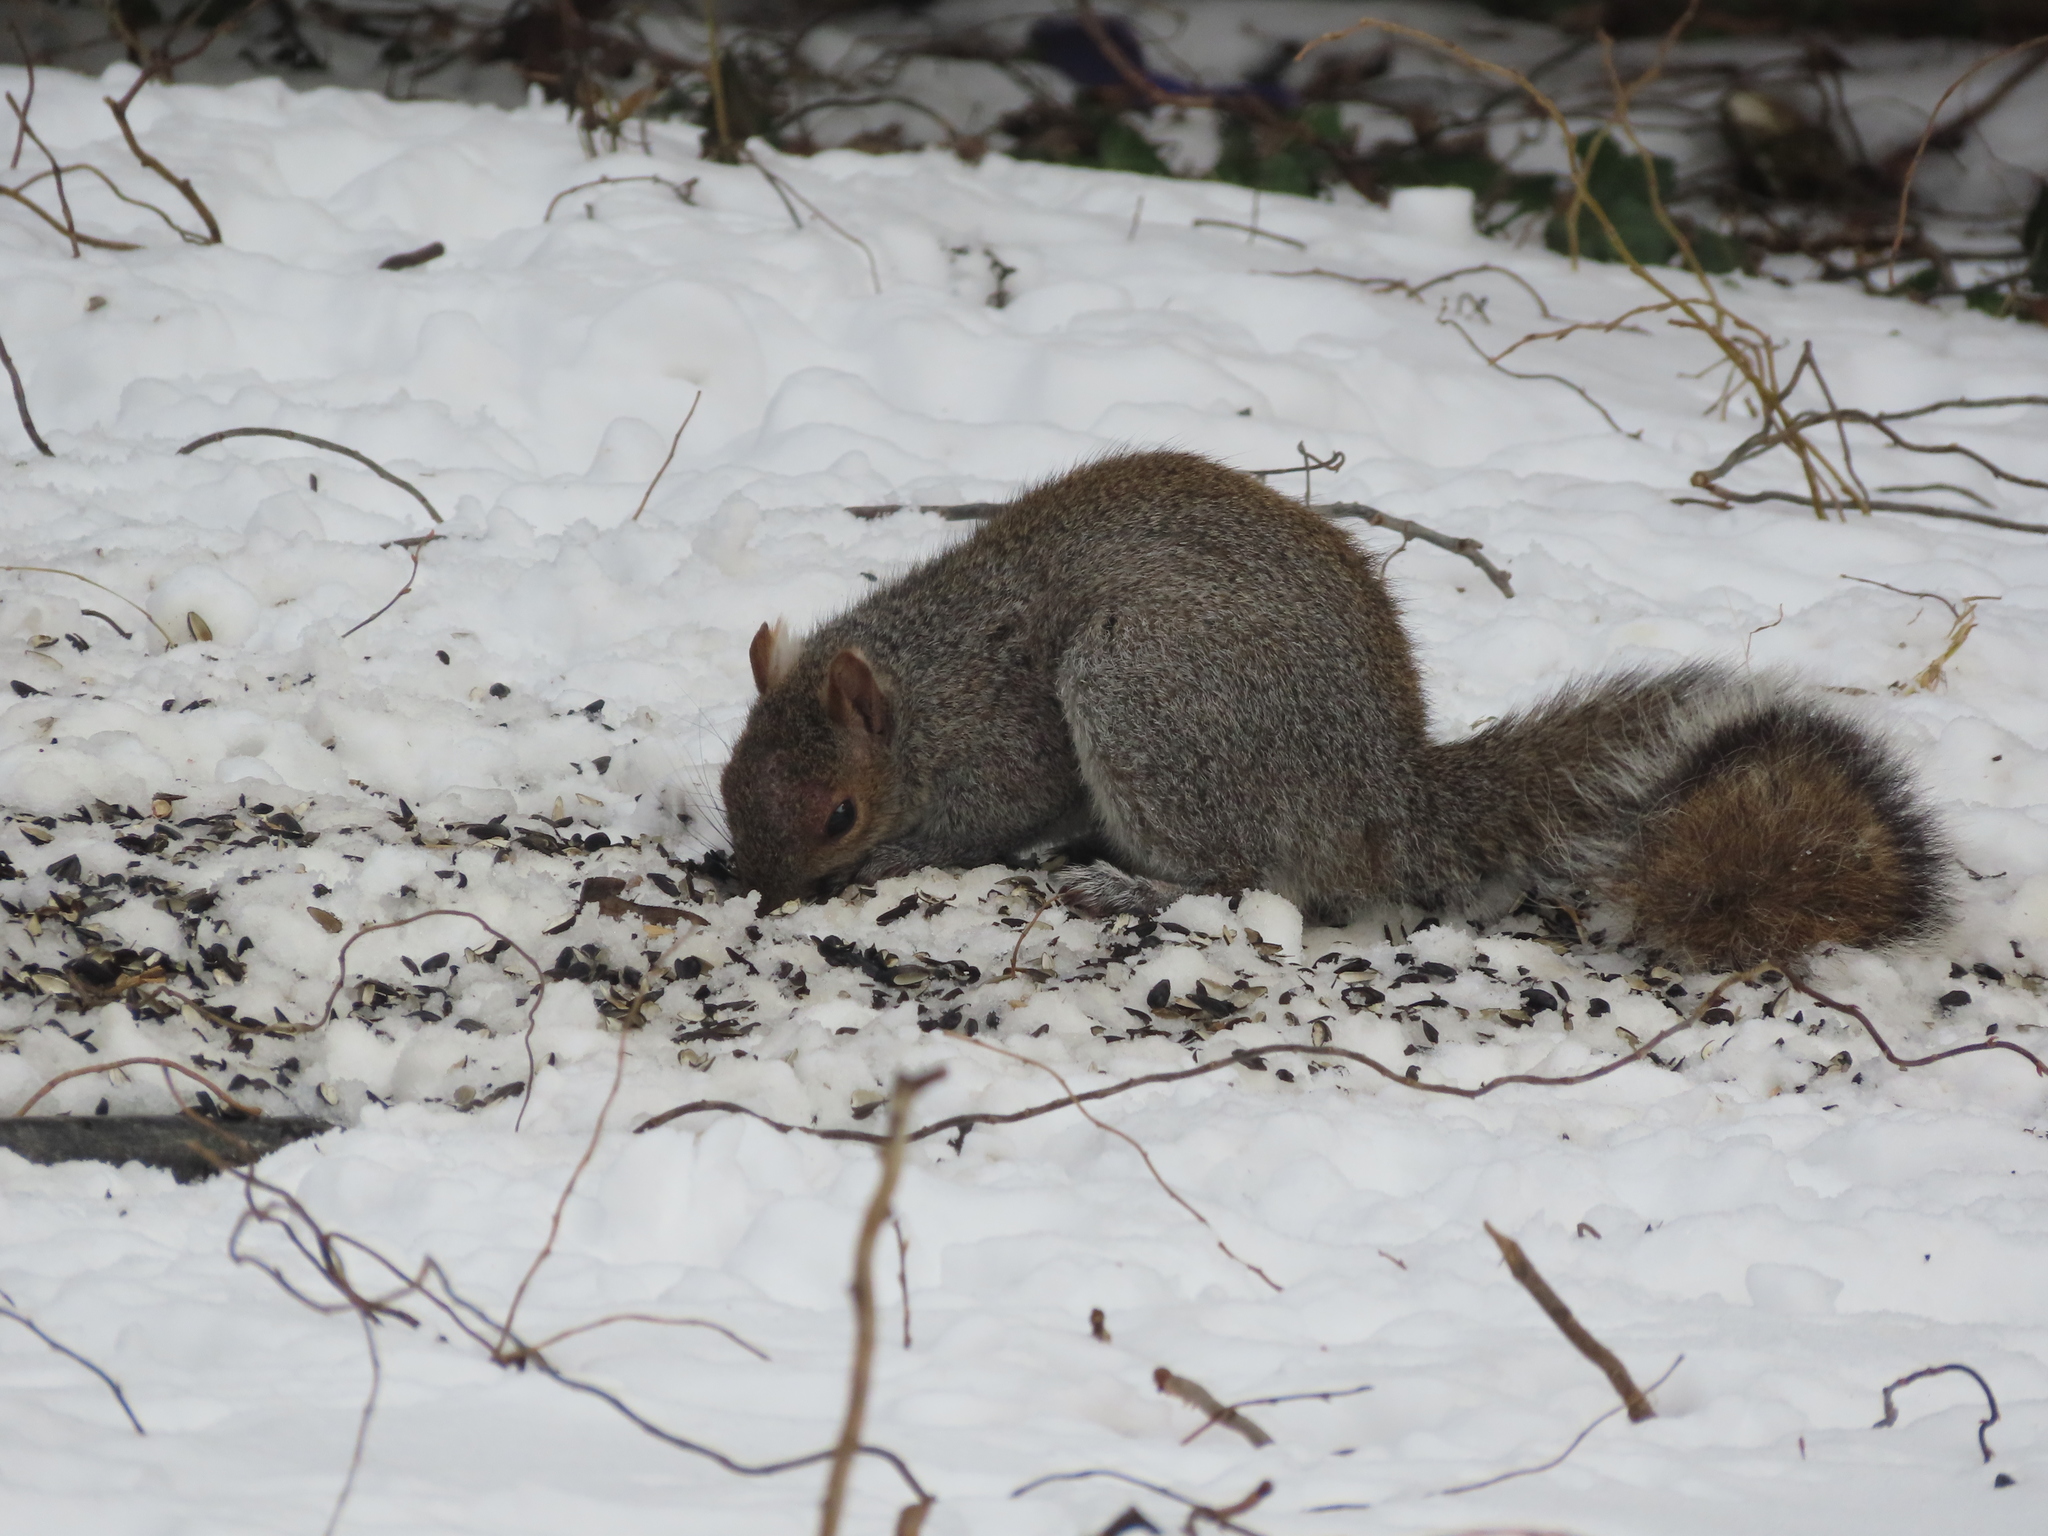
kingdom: Animalia
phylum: Chordata
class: Mammalia
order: Rodentia
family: Sciuridae
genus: Sciurus
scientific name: Sciurus carolinensis
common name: Eastern gray squirrel
